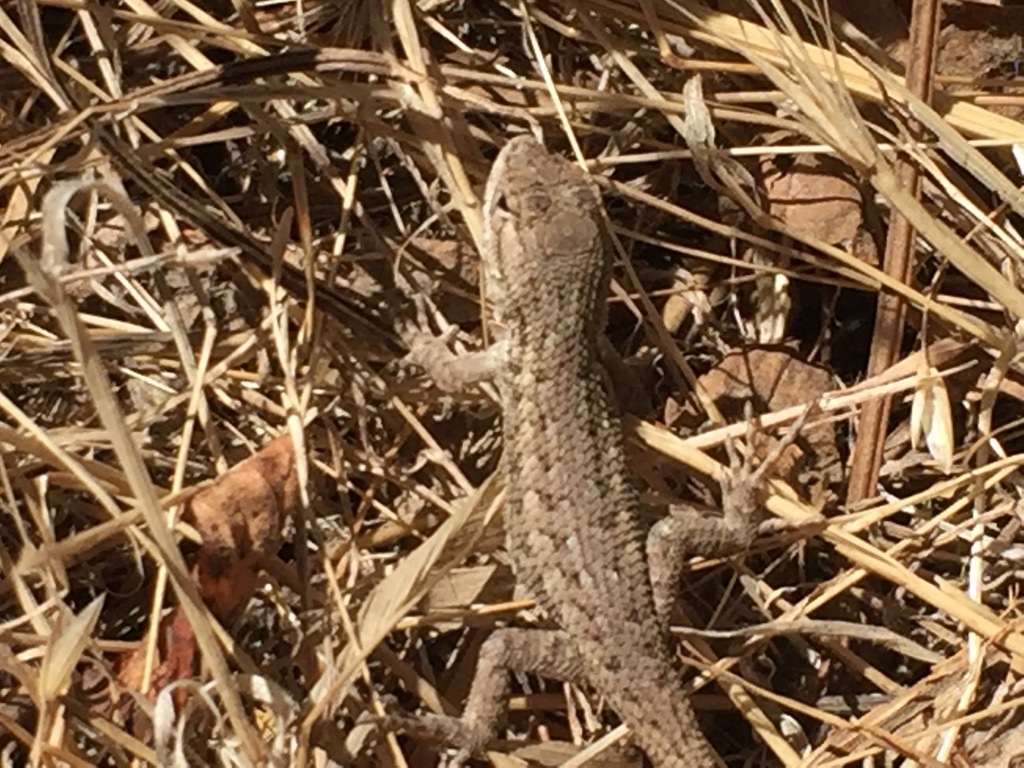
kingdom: Animalia
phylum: Chordata
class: Squamata
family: Phrynosomatidae
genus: Sceloporus
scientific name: Sceloporus occidentalis
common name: Western fence lizard
